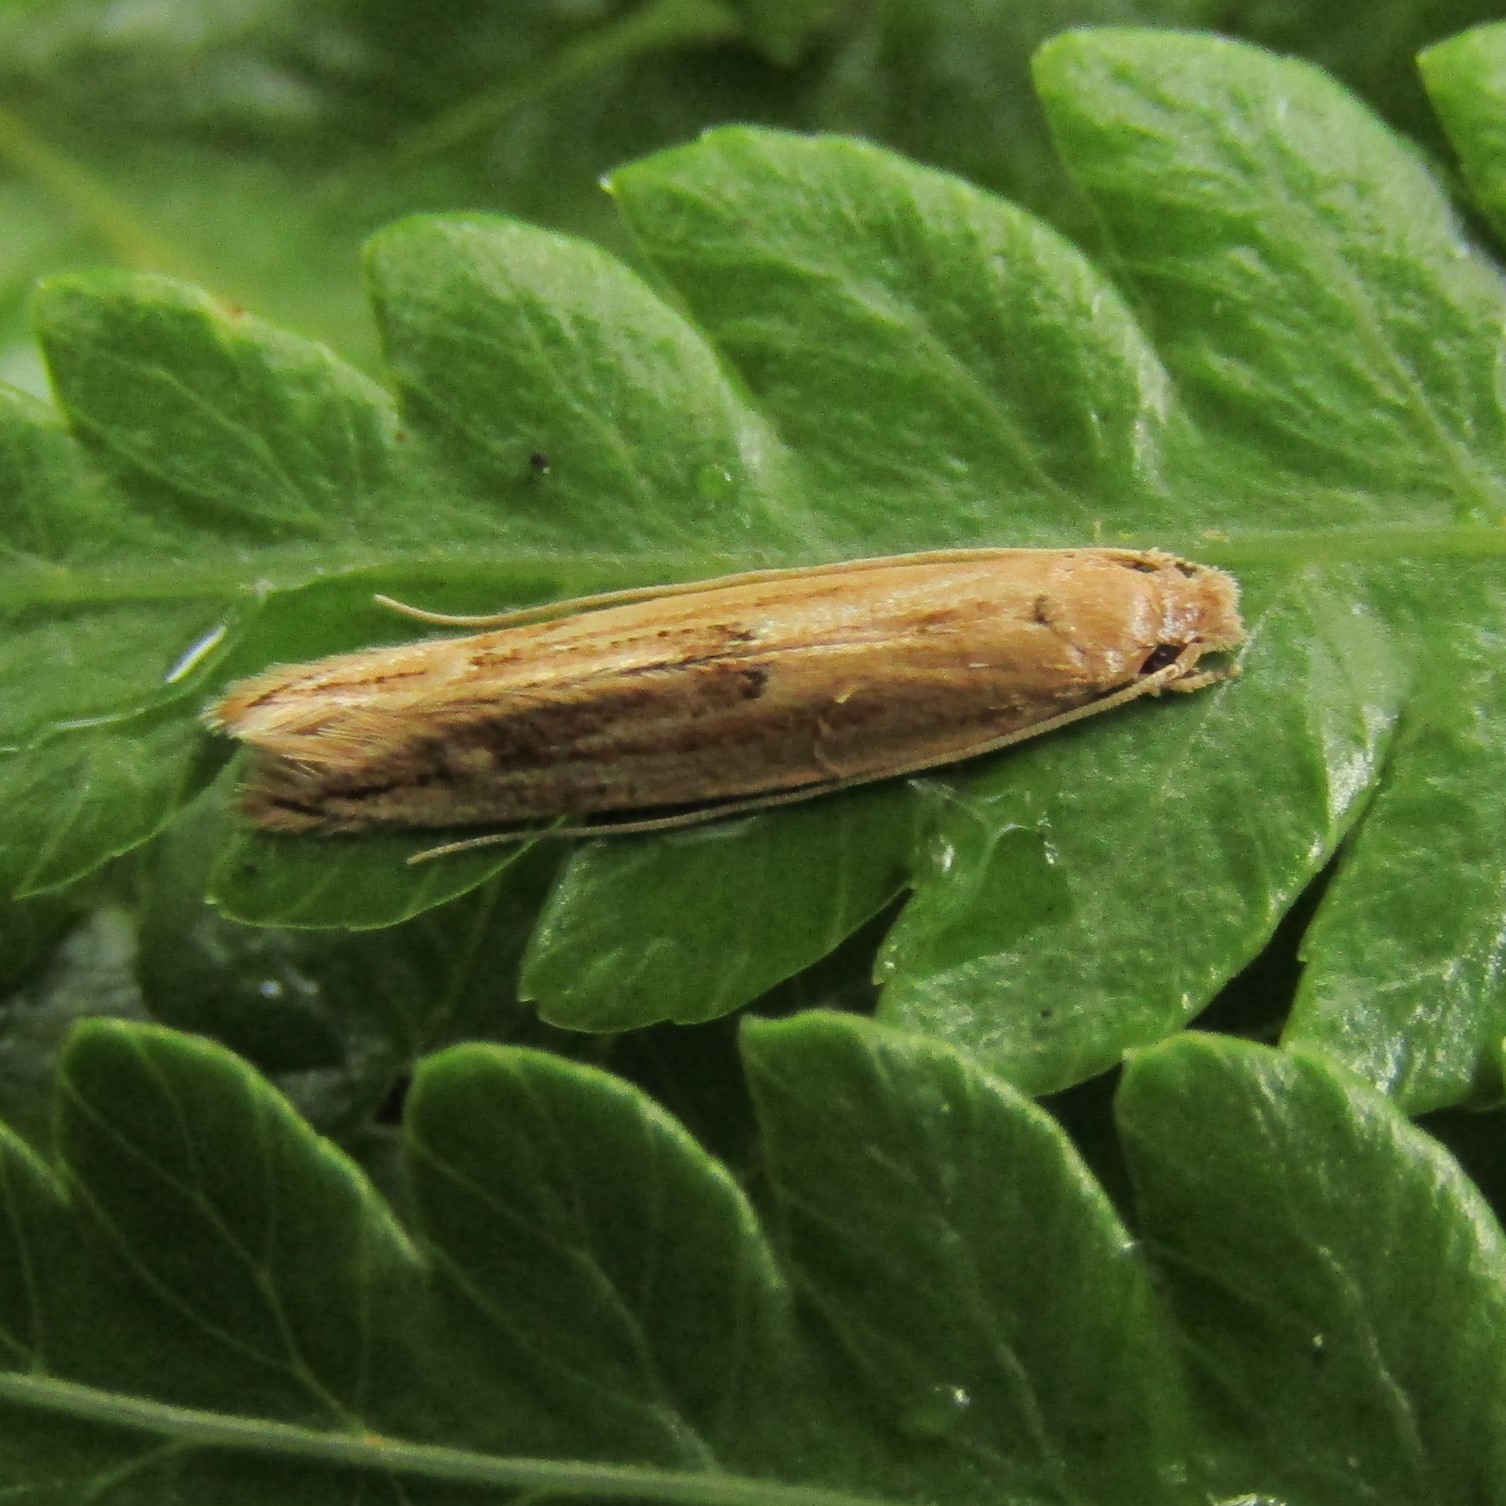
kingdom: Animalia
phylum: Arthropoda
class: Insecta
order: Lepidoptera
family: Tineidae
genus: Amphixystis
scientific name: Amphixystis hapsimacha
